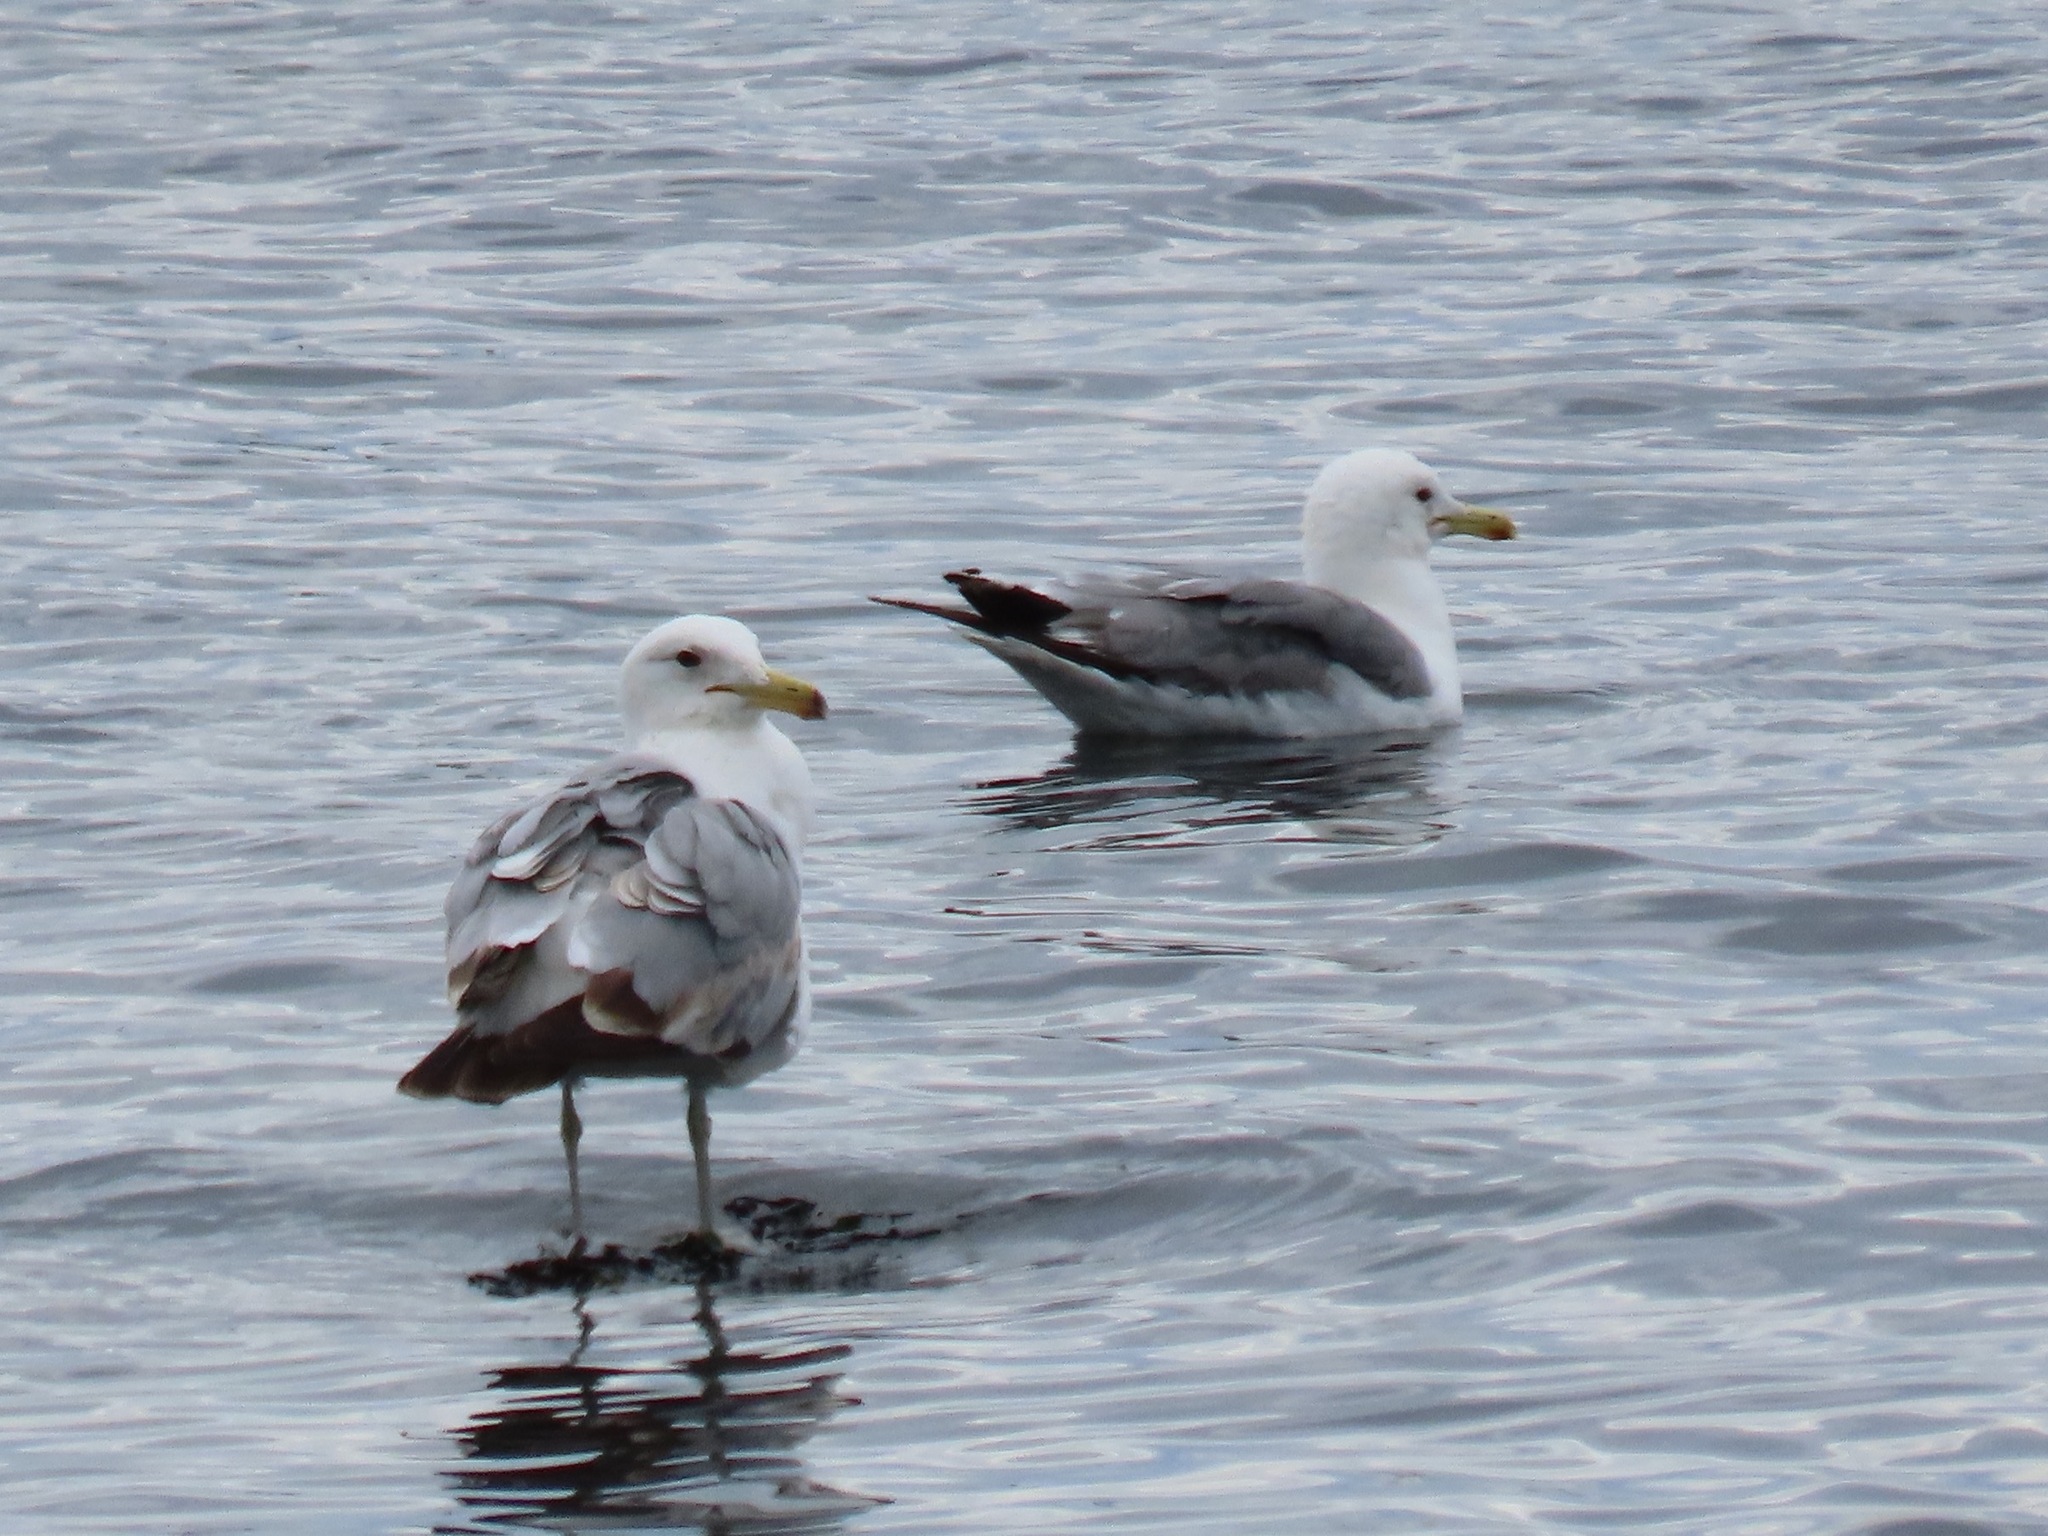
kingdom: Animalia
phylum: Chordata
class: Aves
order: Charadriiformes
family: Laridae
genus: Larus
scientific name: Larus californicus
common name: California gull
